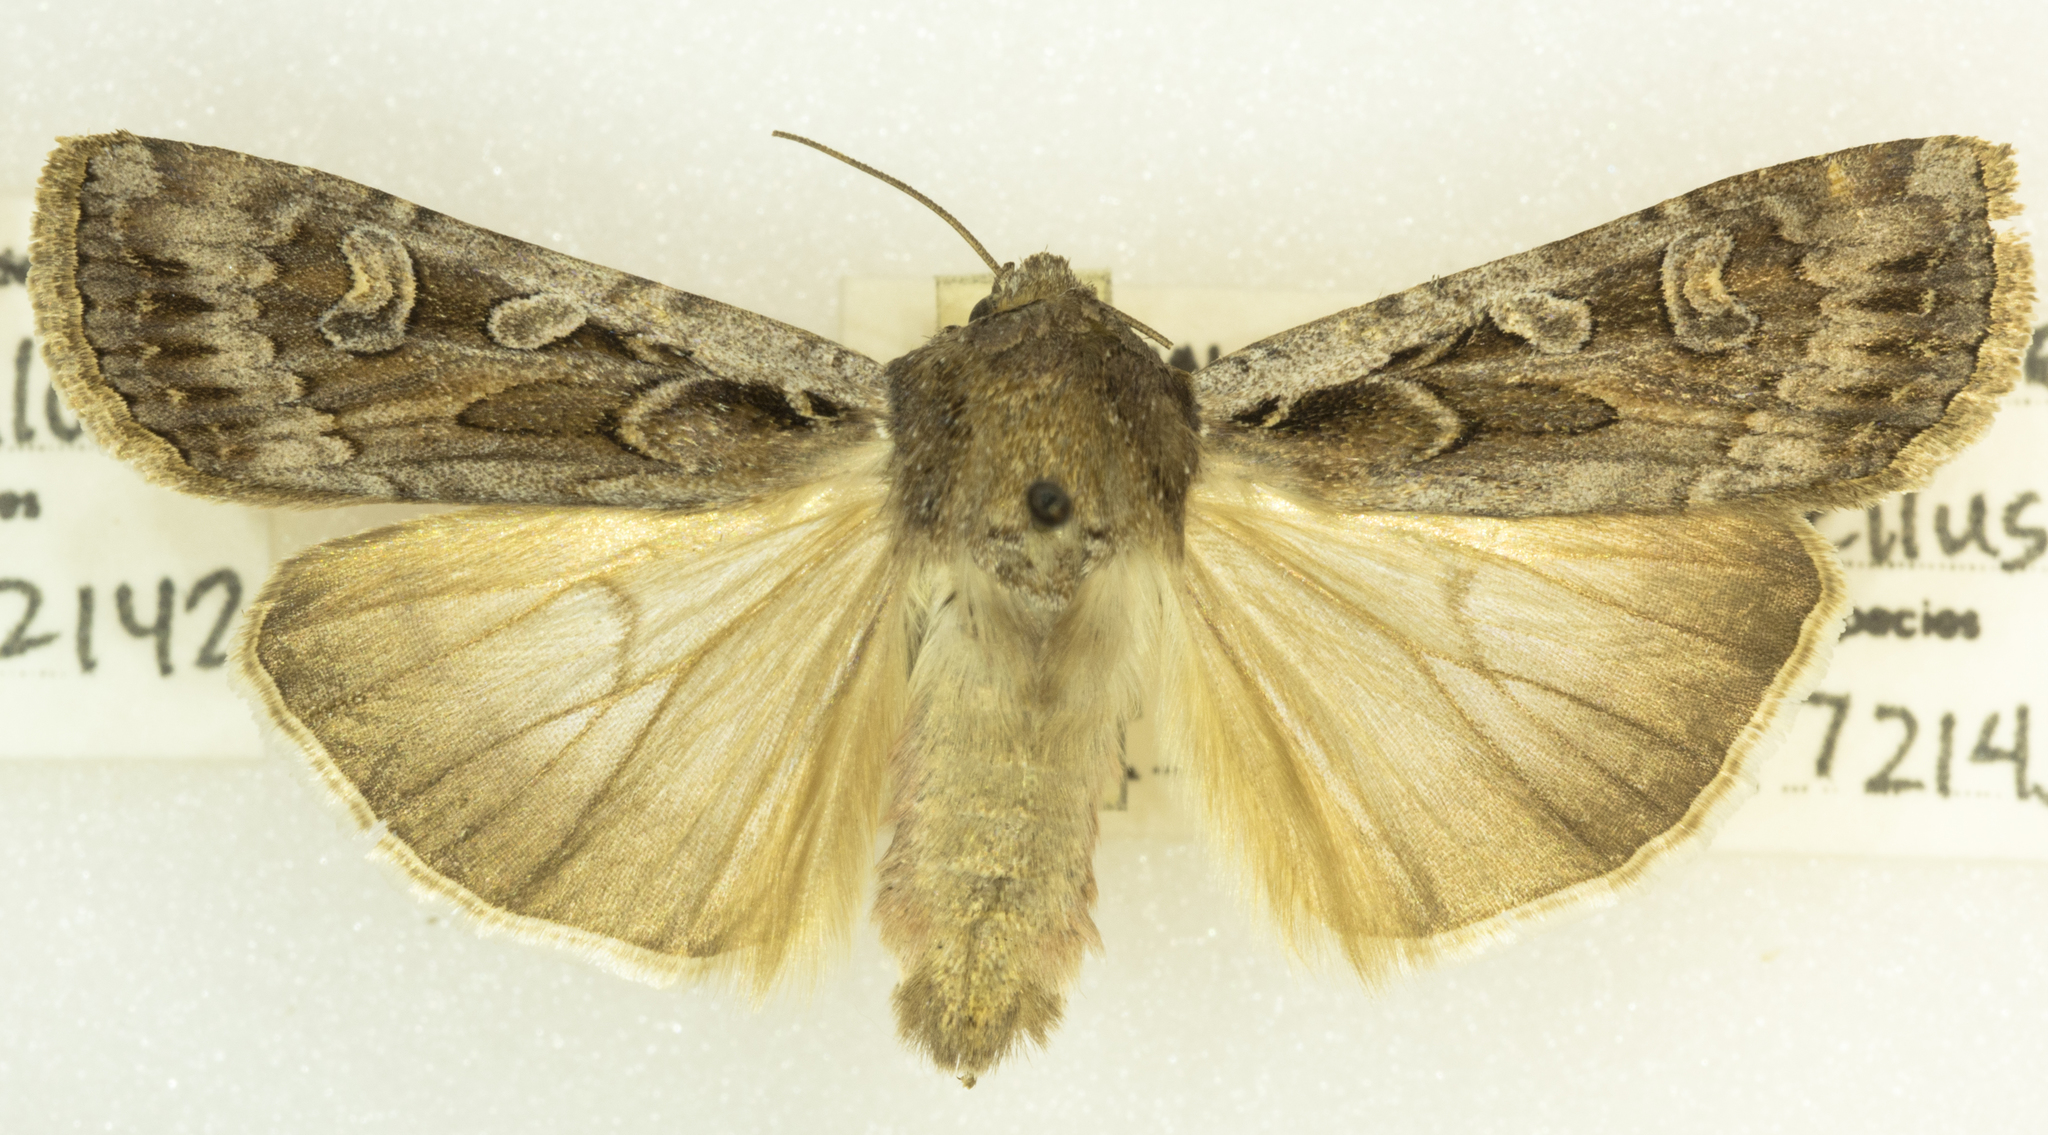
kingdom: Animalia
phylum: Arthropoda
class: Insecta
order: Lepidoptera
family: Noctuidae
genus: Euxoa
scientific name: Euxoa auxiliaris
